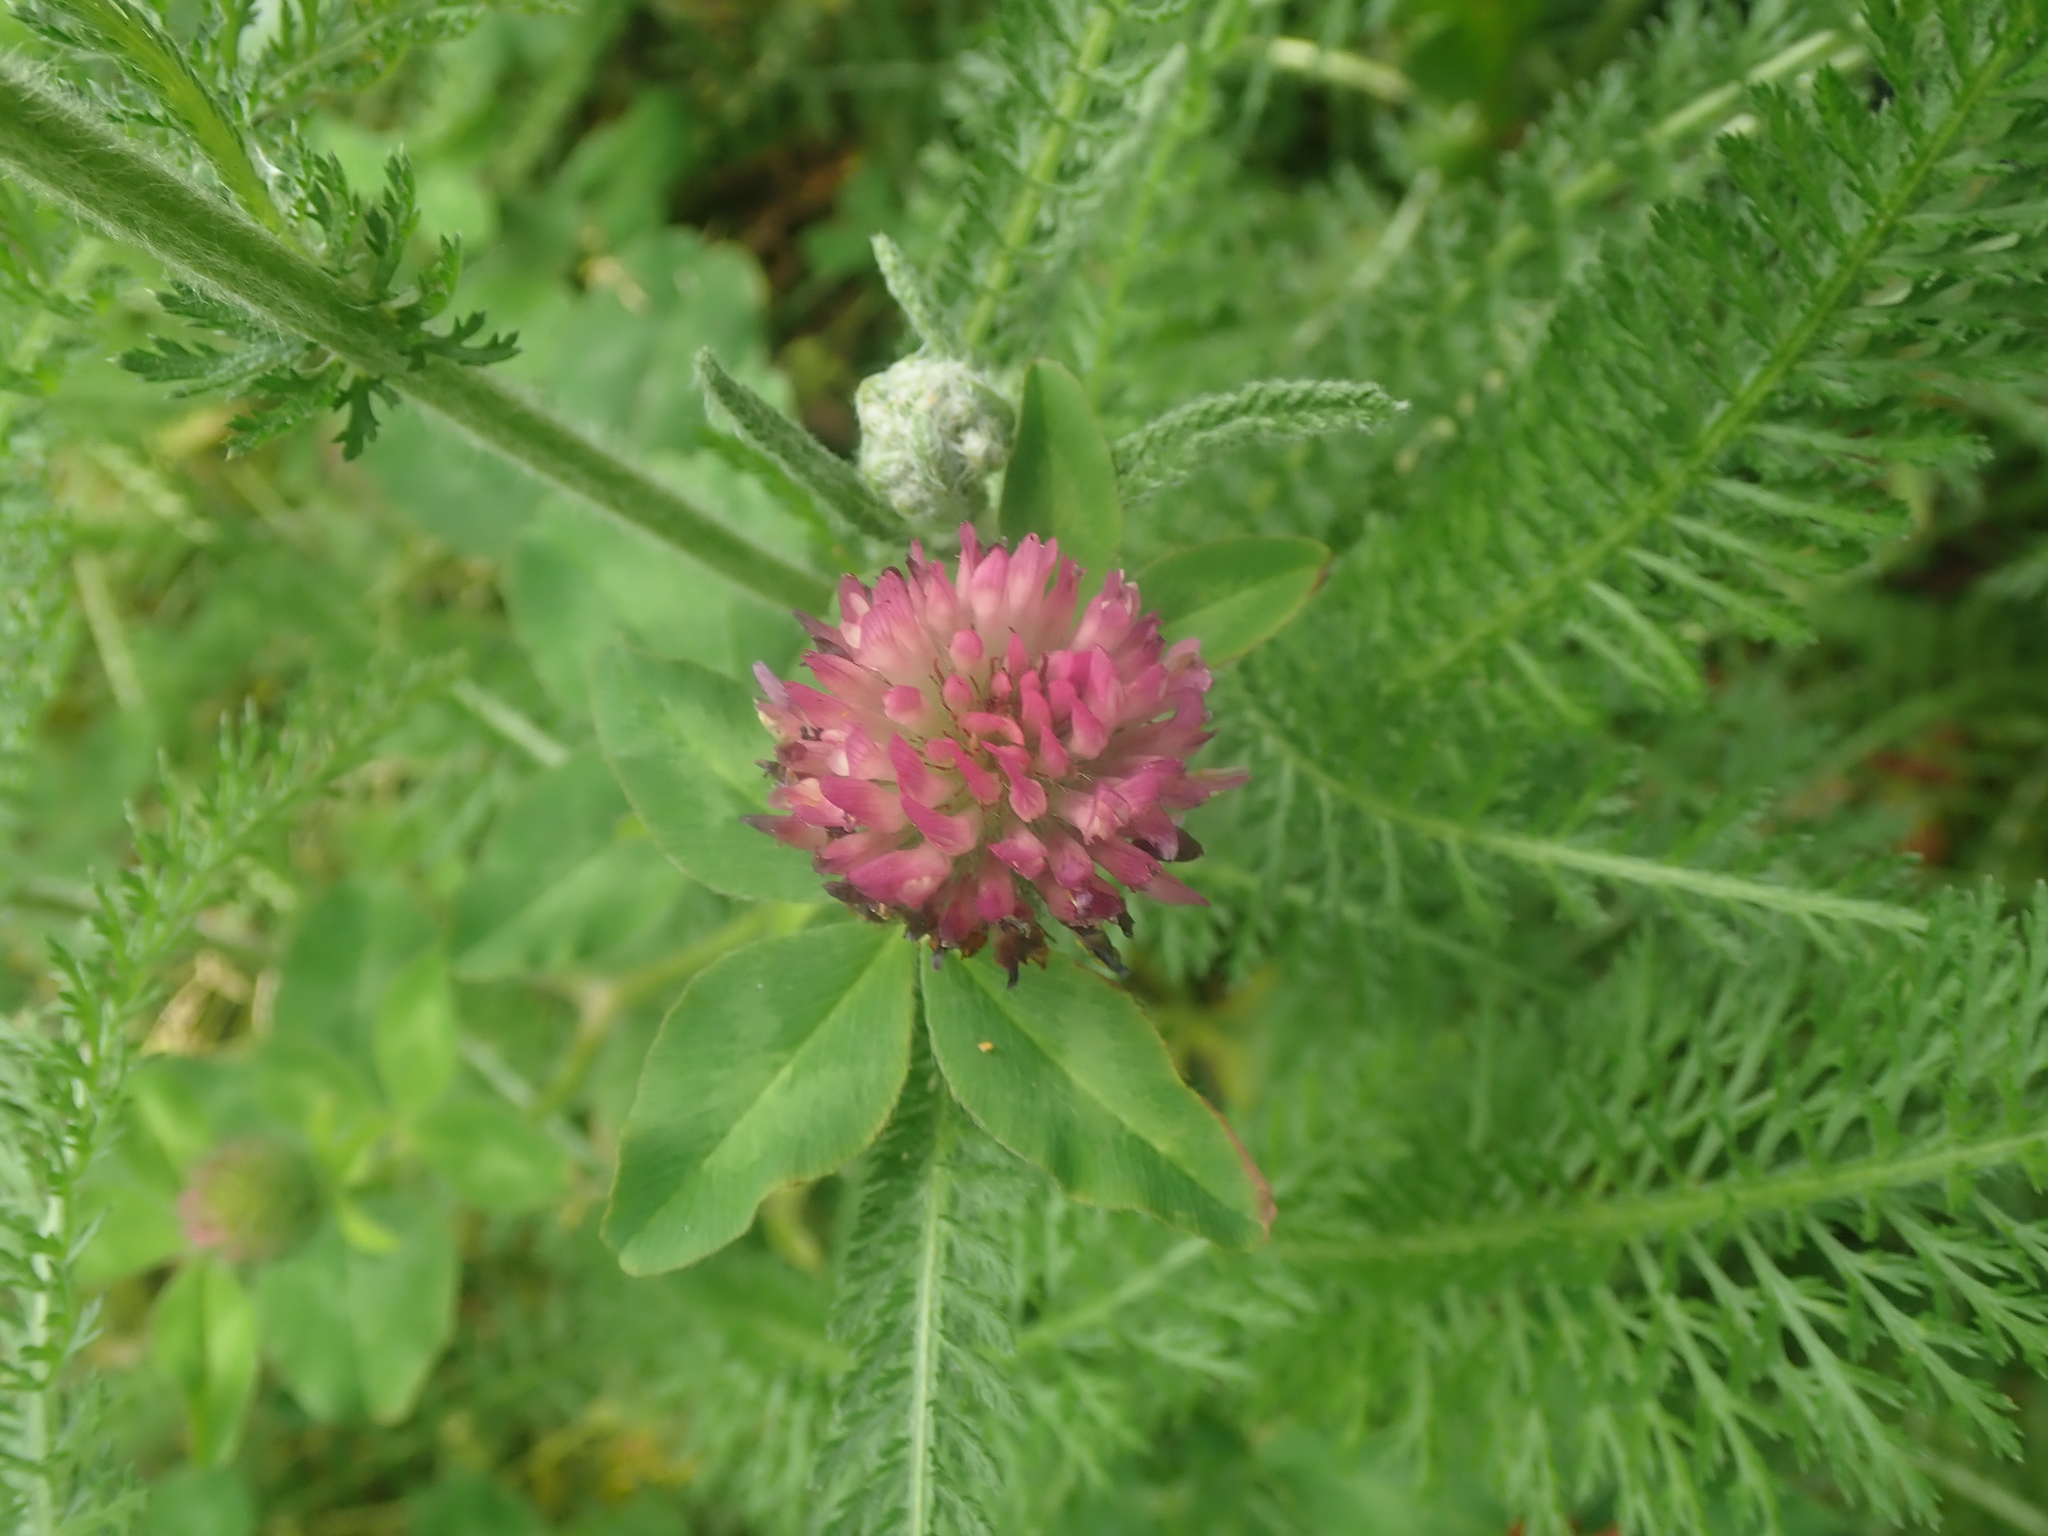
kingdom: Plantae
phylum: Tracheophyta
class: Magnoliopsida
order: Fabales
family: Fabaceae
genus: Trifolium
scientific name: Trifolium pratense
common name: Red clover
